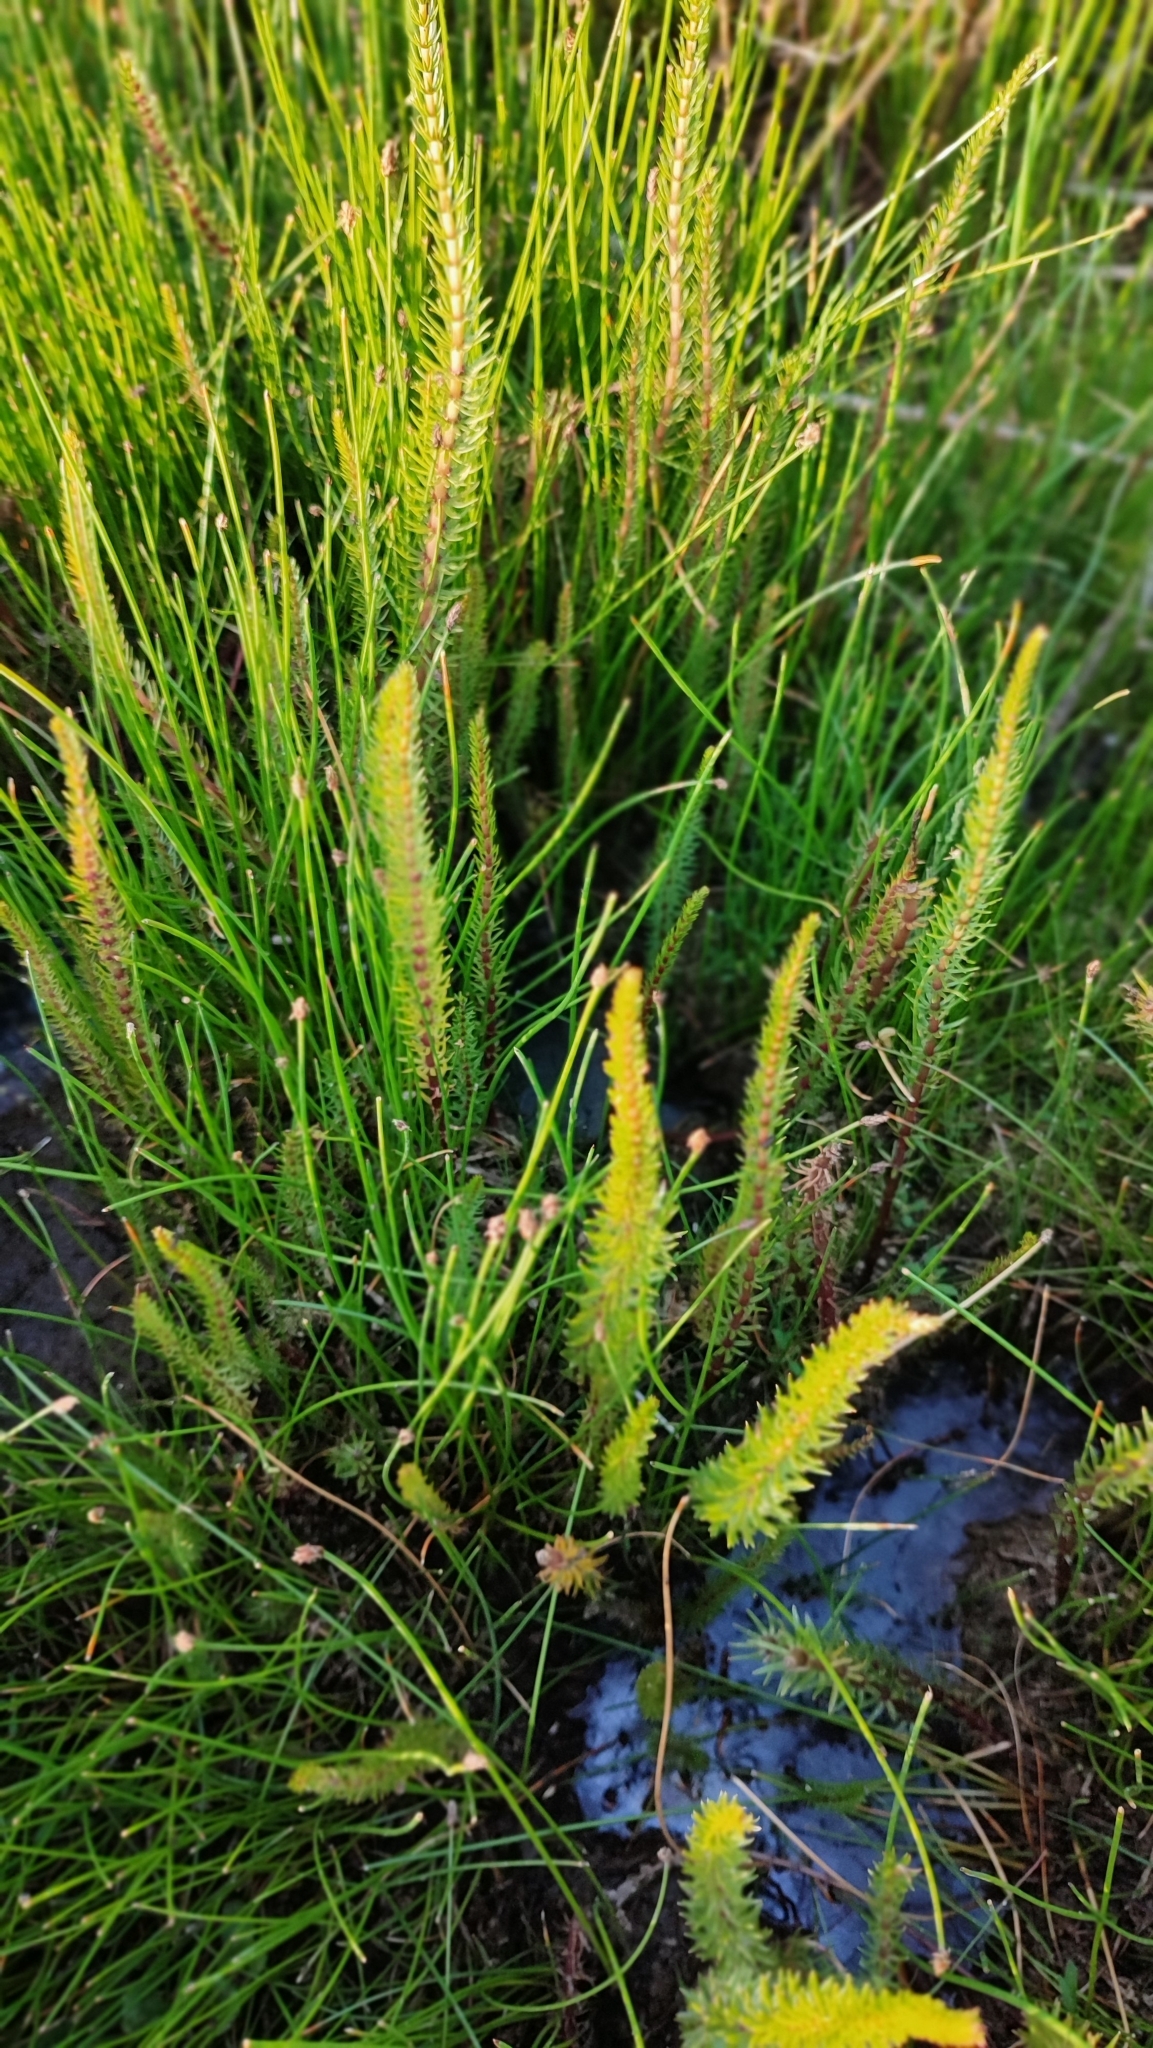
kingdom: Plantae
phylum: Tracheophyta
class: Magnoliopsida
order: Lamiales
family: Plantaginaceae
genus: Hippuris
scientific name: Hippuris vulgaris
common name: Mare's-tail
